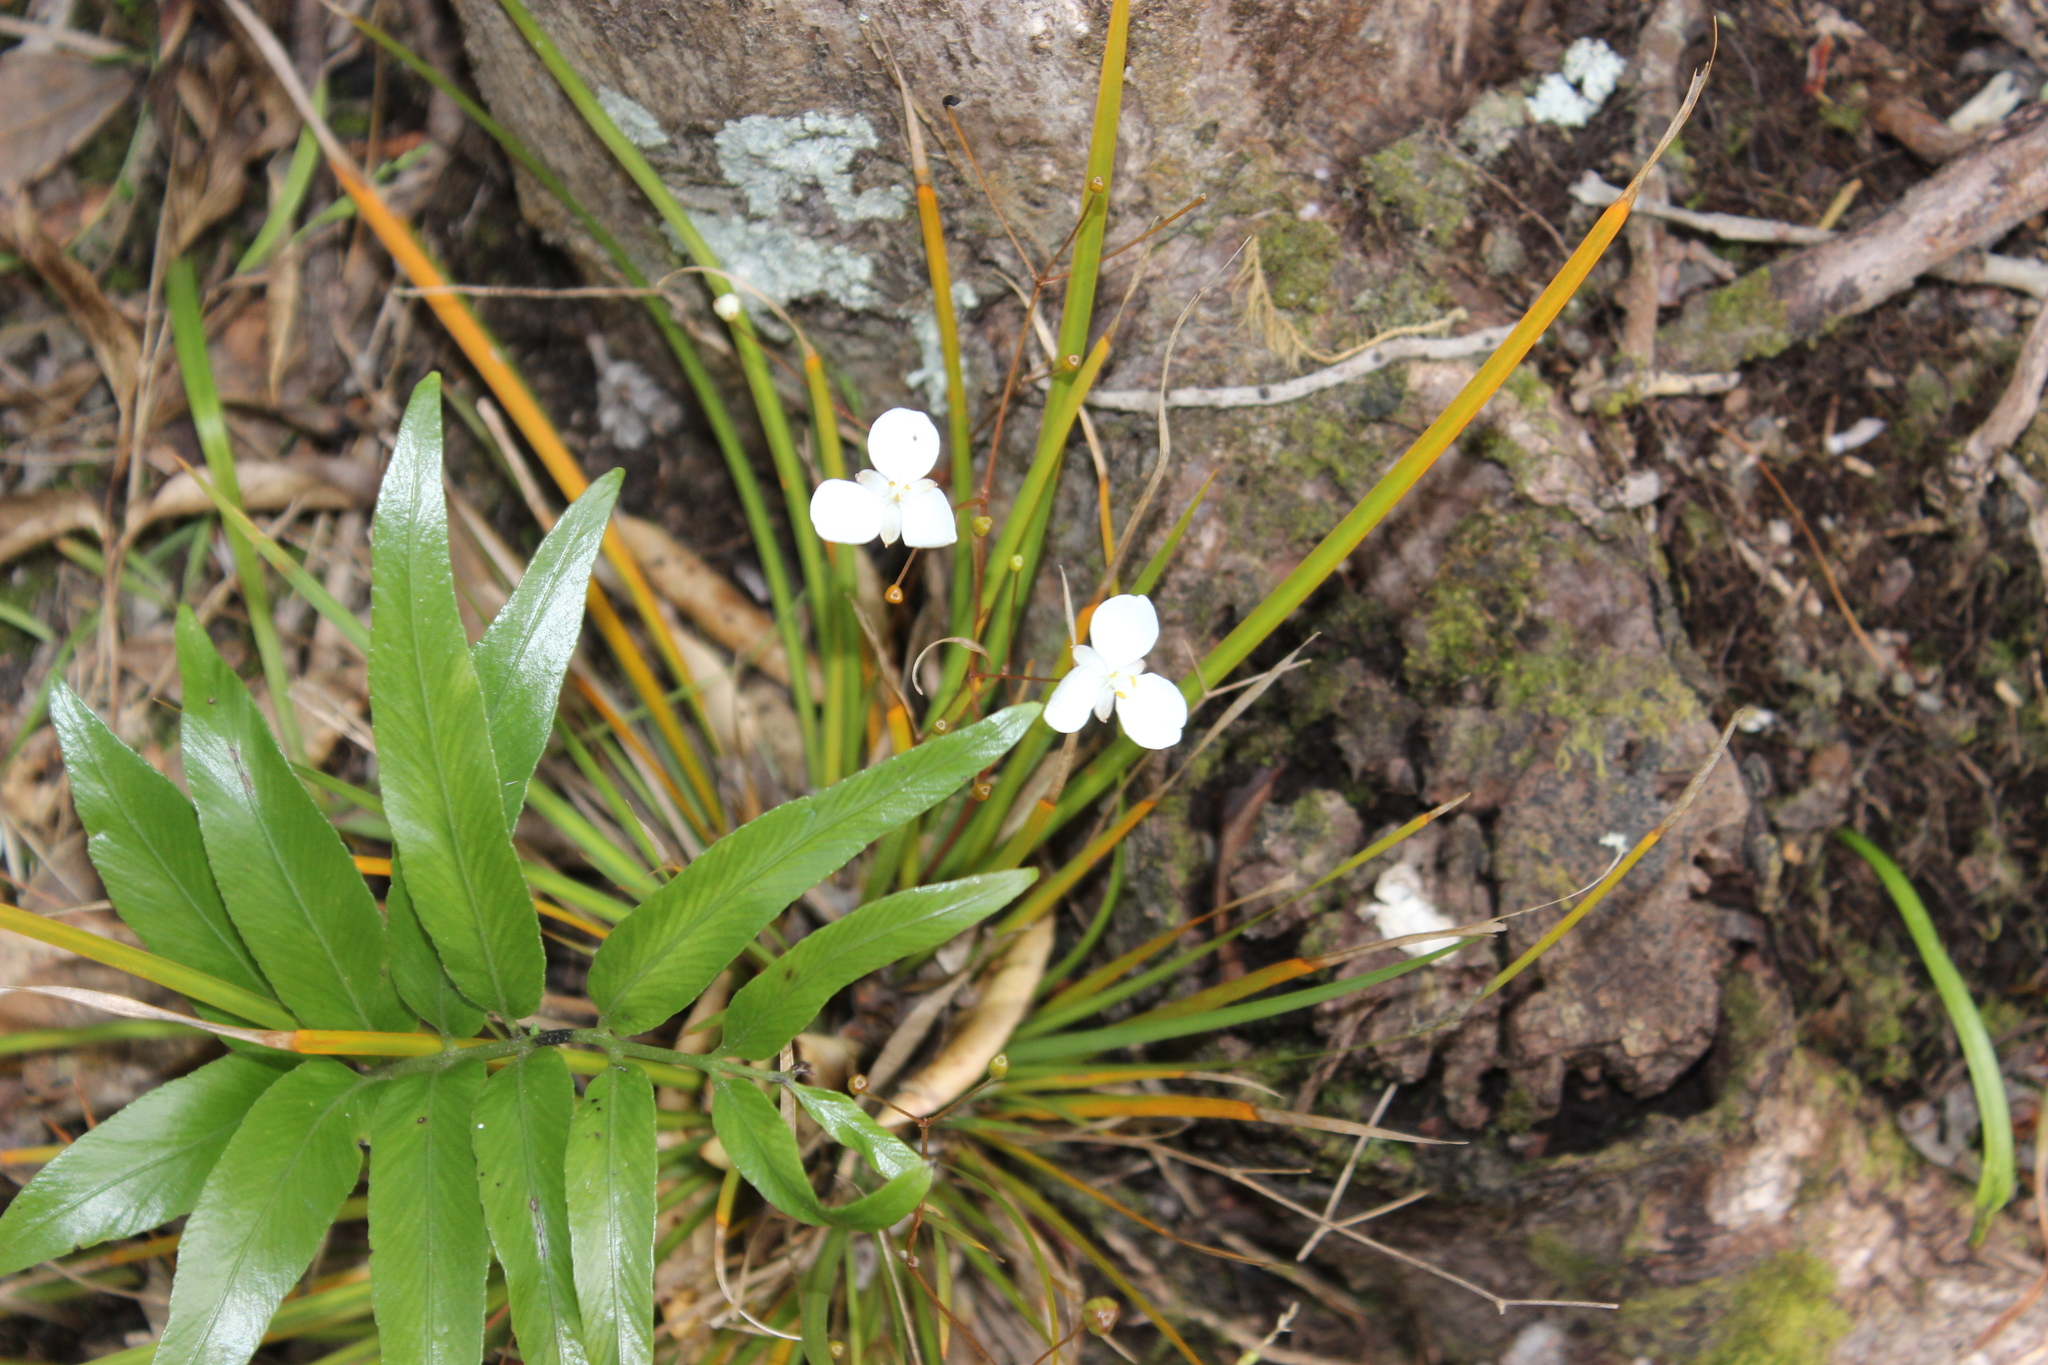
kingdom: Plantae
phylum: Tracheophyta
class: Liliopsida
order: Asparagales
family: Iridaceae
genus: Libertia
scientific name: Libertia ixioides
